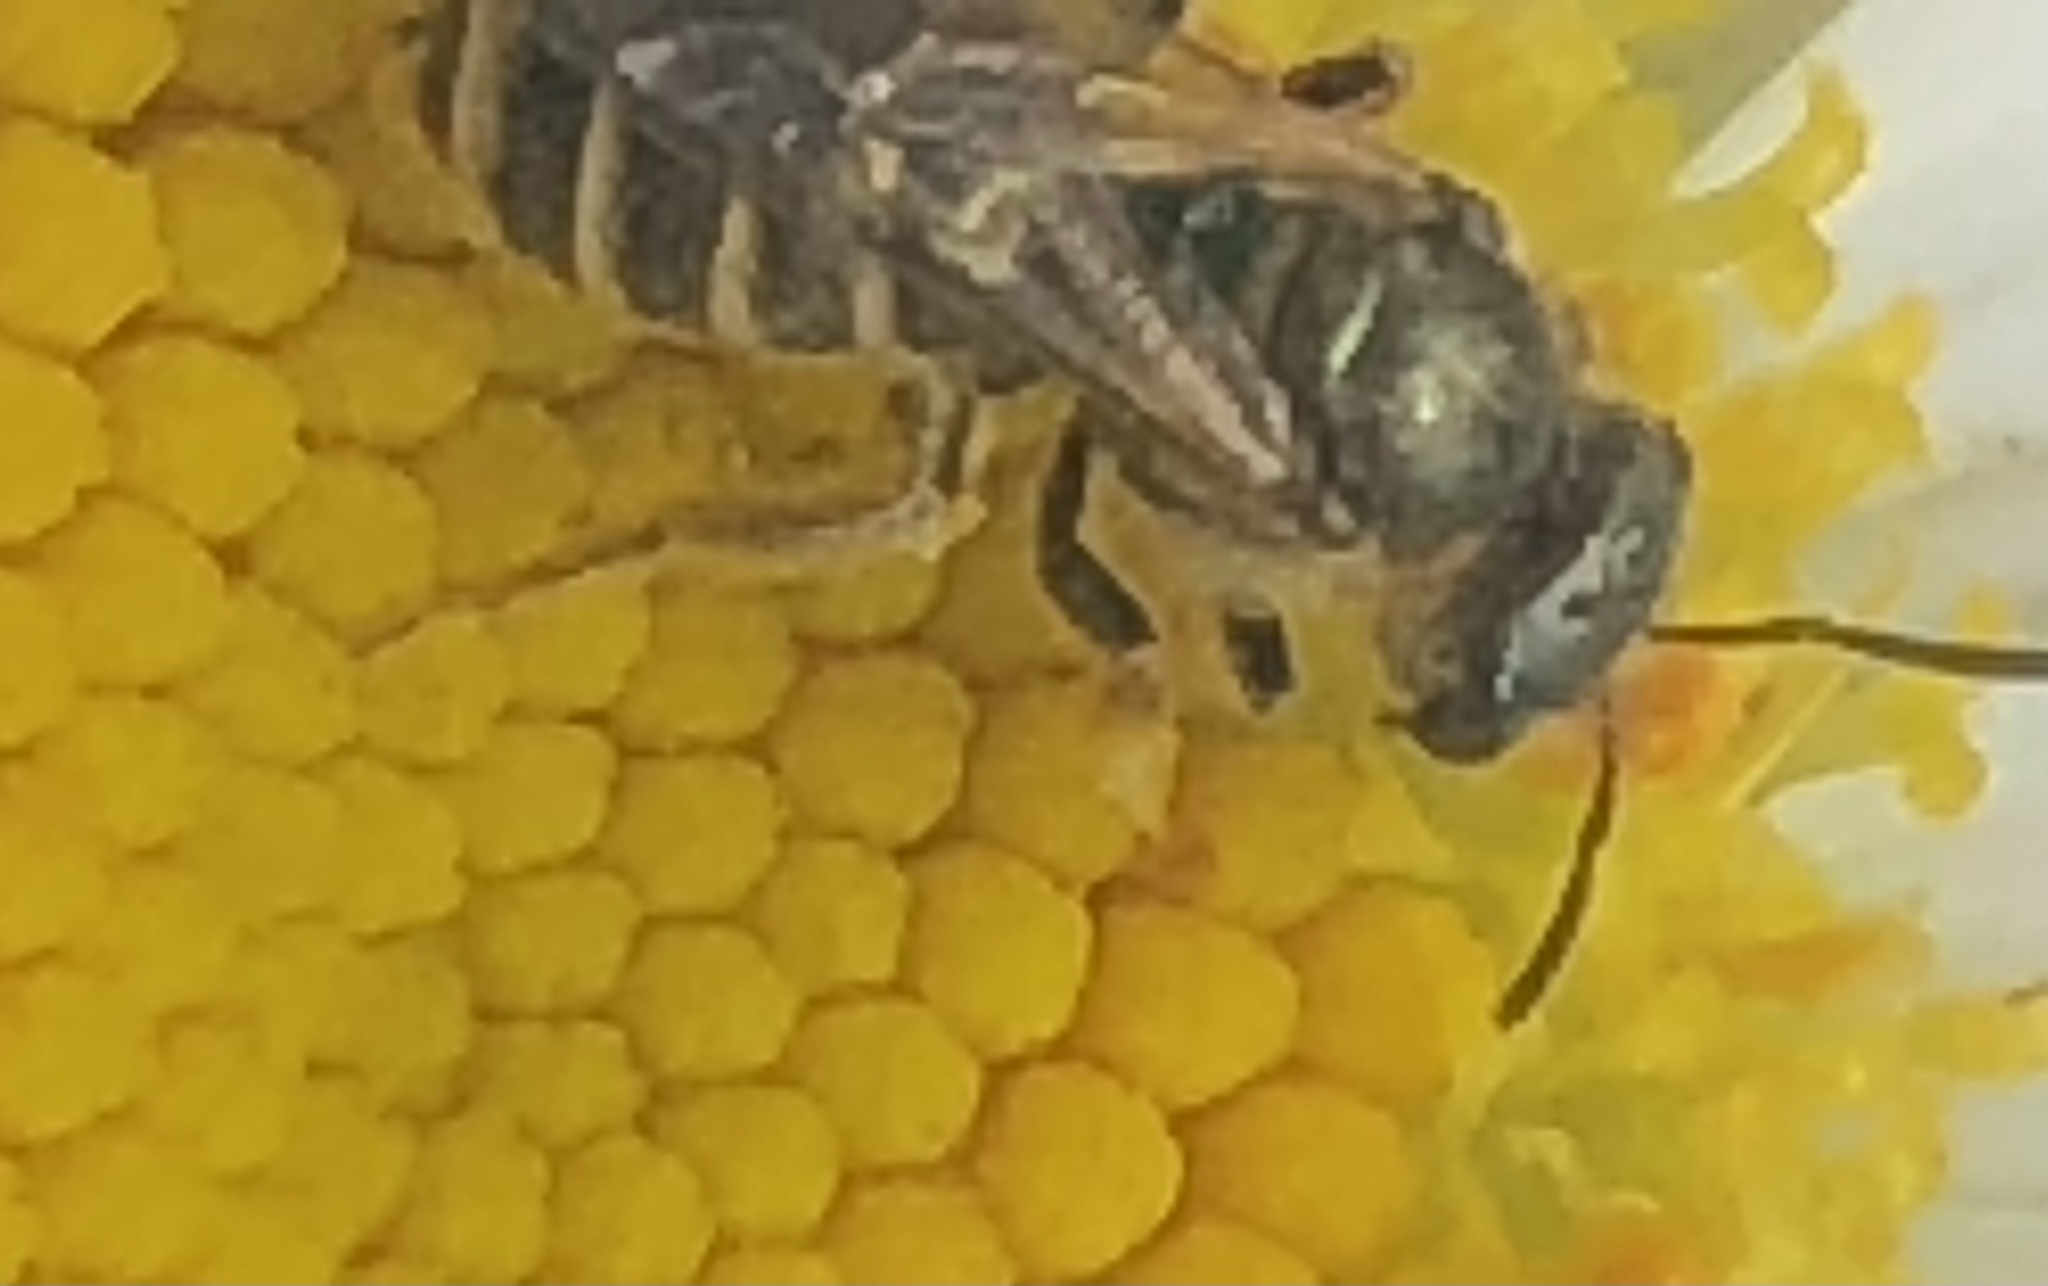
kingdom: Animalia
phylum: Arthropoda
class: Insecta
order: Hymenoptera
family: Halictidae
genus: Halictus
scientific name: Halictus confusus
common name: Southern bronze furrow bee
